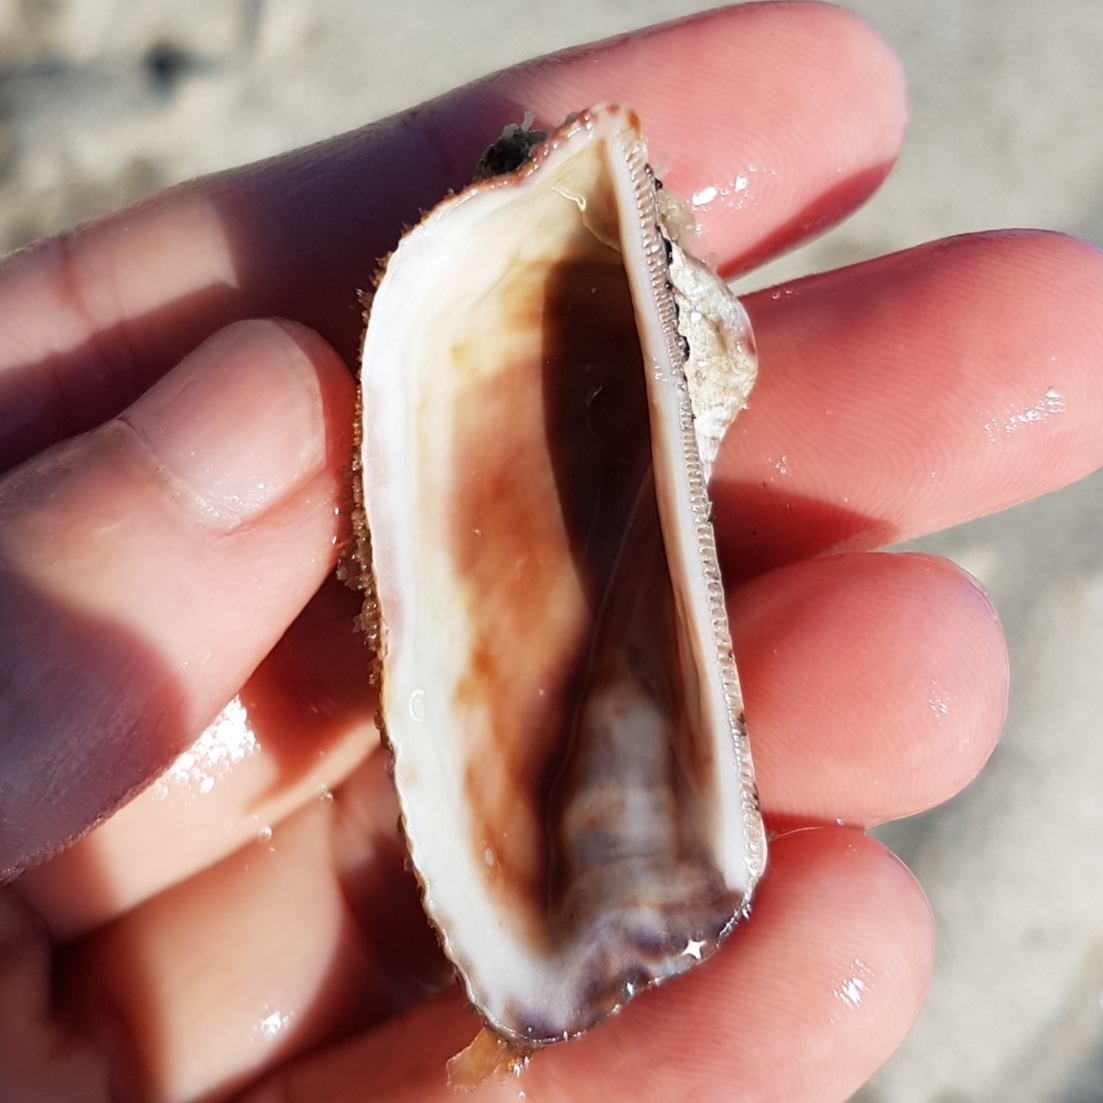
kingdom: Animalia
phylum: Mollusca
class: Bivalvia
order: Arcida
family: Arcidae
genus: Arca
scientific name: Arca noae
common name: Noah's arch
